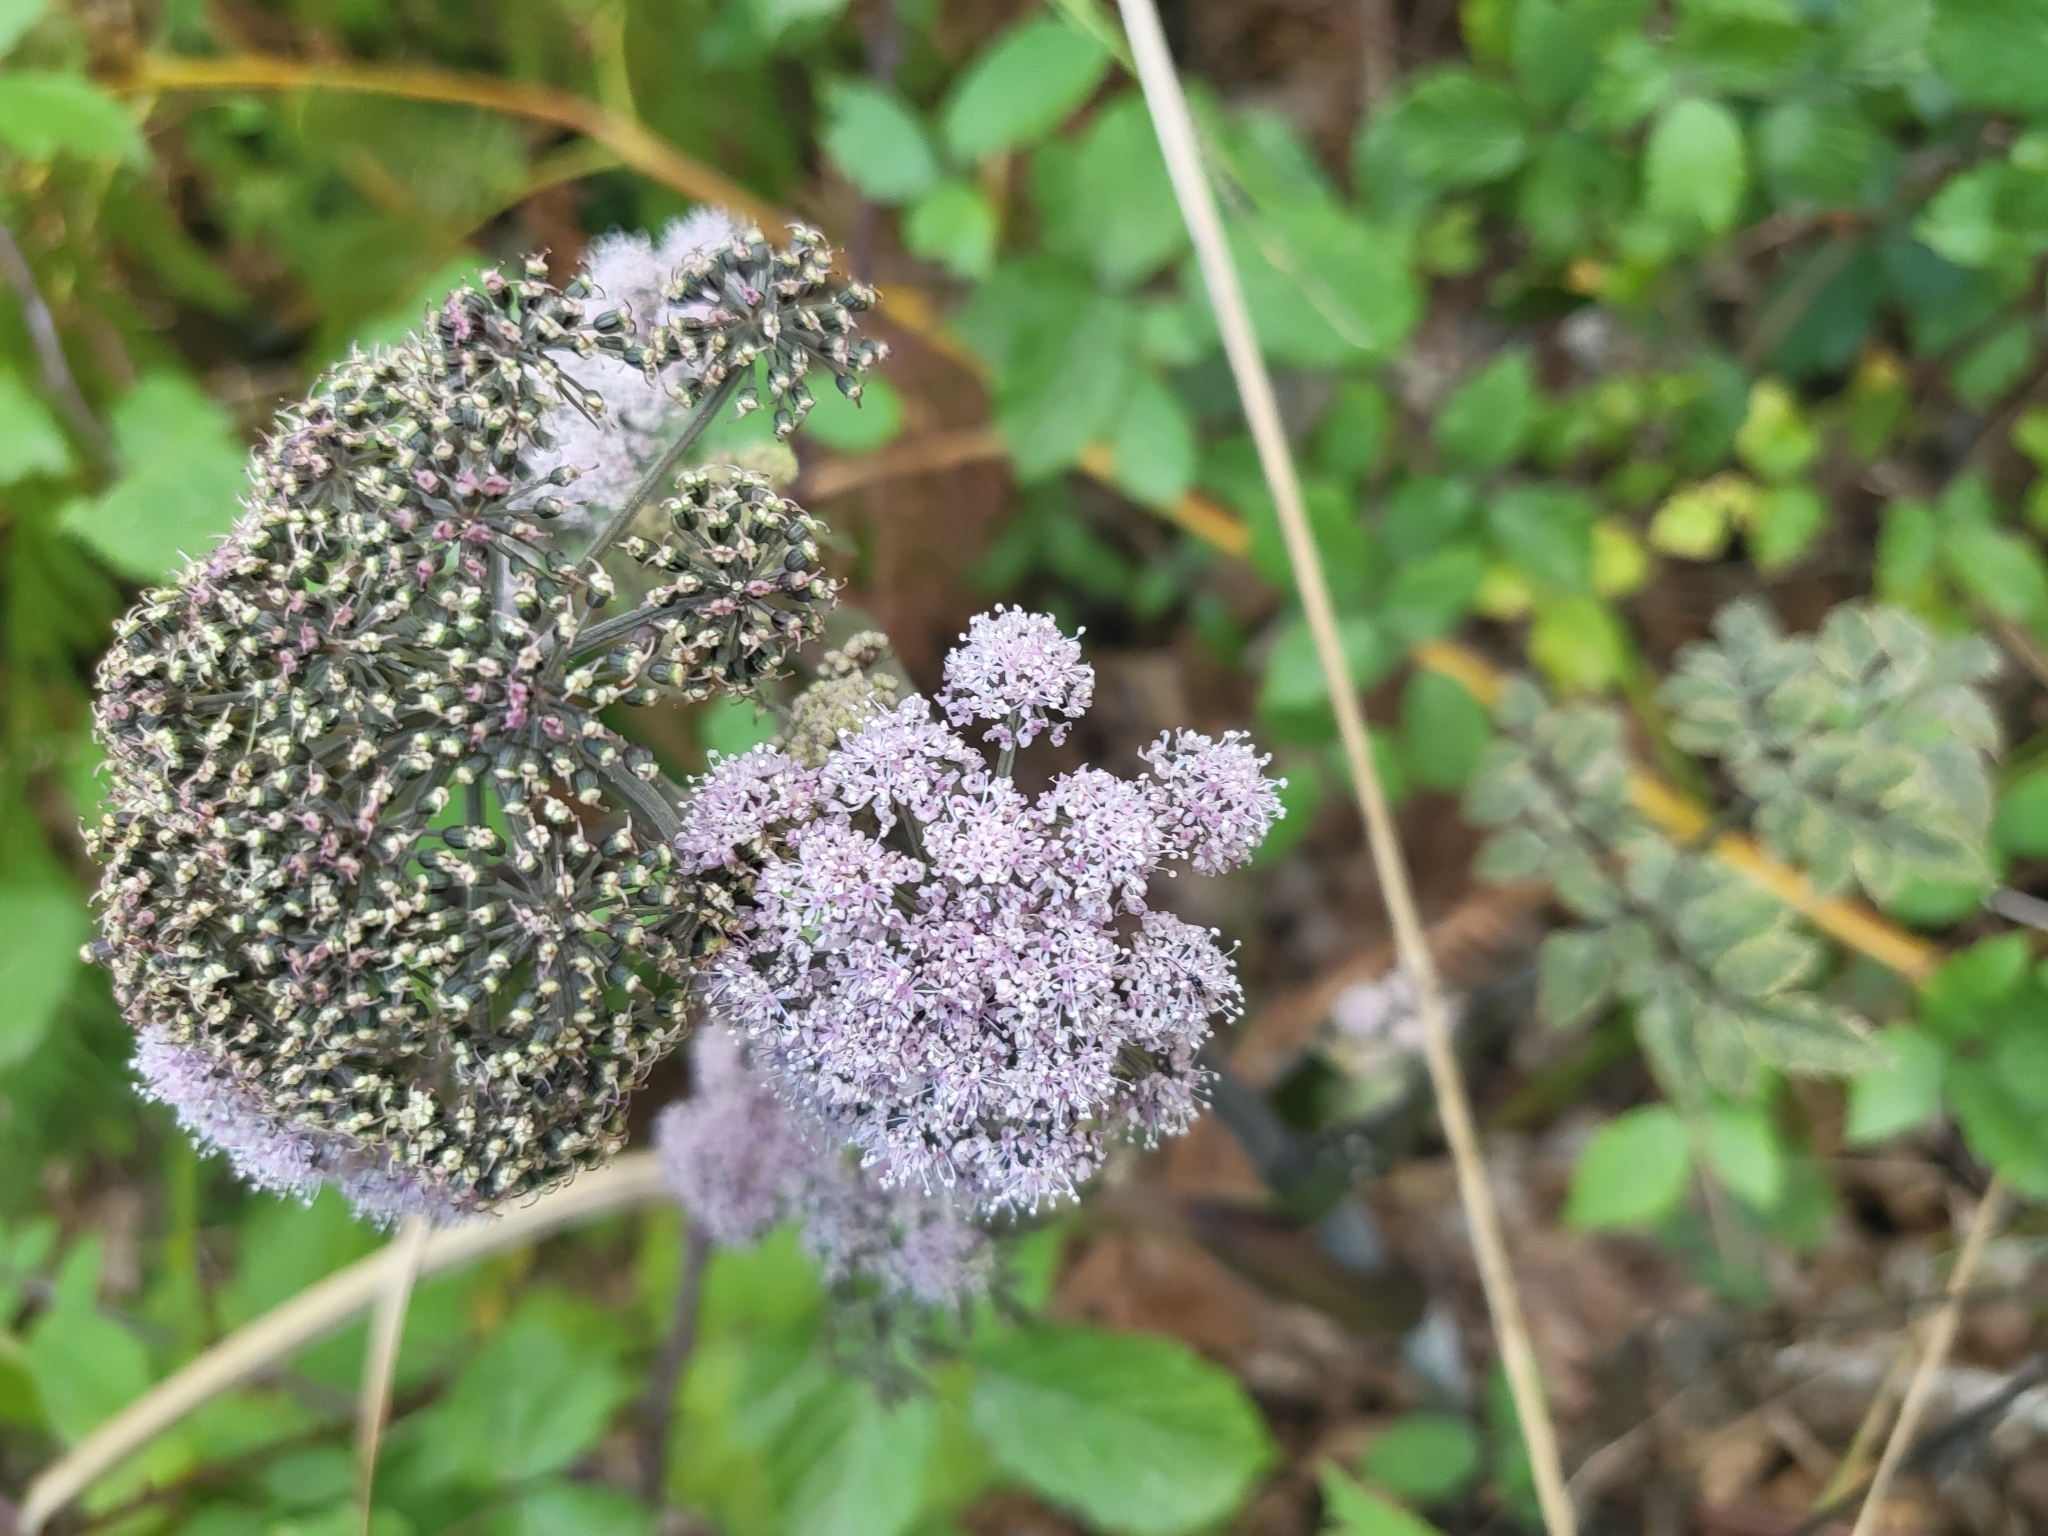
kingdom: Plantae
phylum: Tracheophyta
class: Magnoliopsida
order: Apiales
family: Apiaceae
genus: Angelica
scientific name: Angelica sylvestris
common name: Wild angelica
